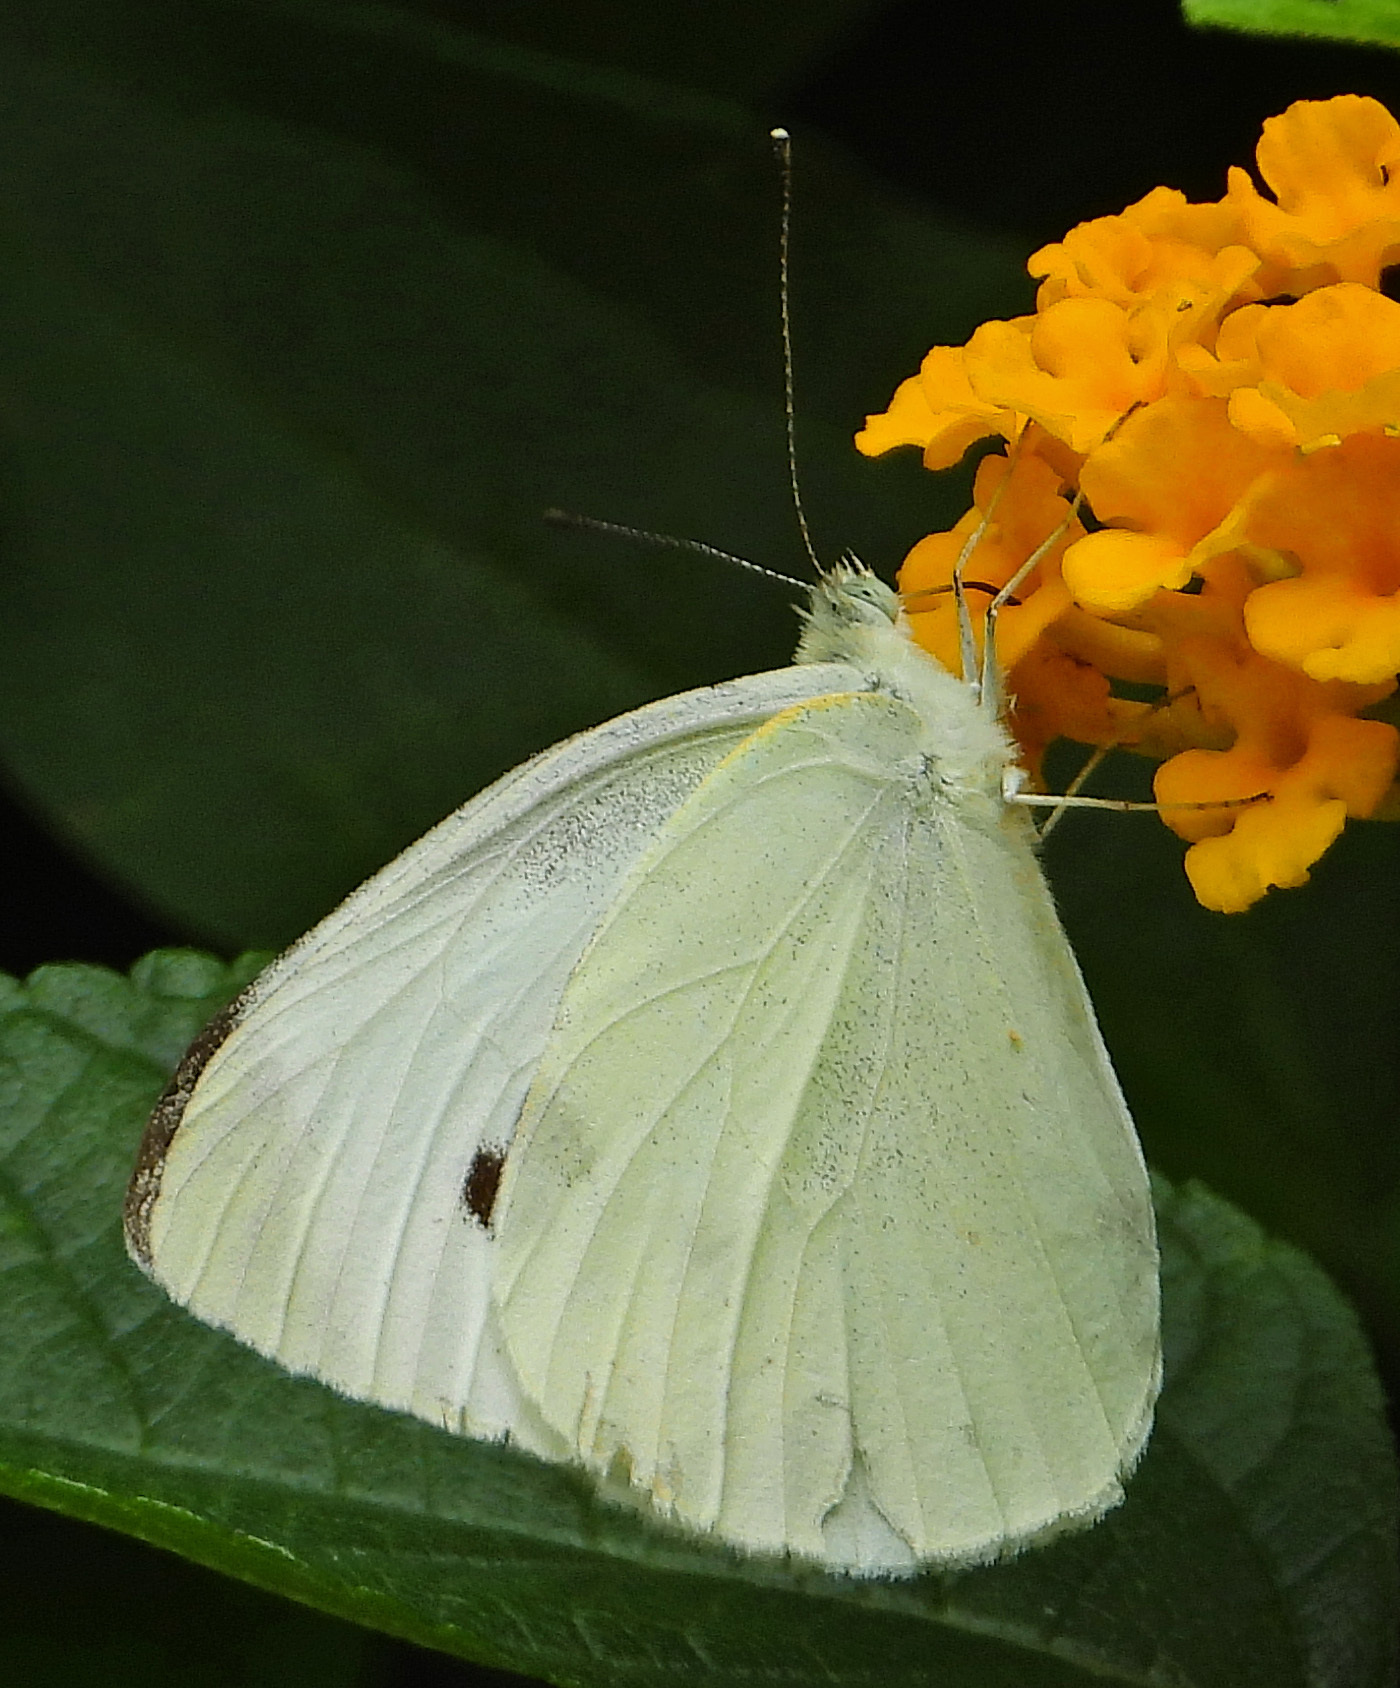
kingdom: Animalia
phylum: Arthropoda
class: Insecta
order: Lepidoptera
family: Pieridae
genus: Pieris
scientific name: Pieris rapae
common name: Small white
